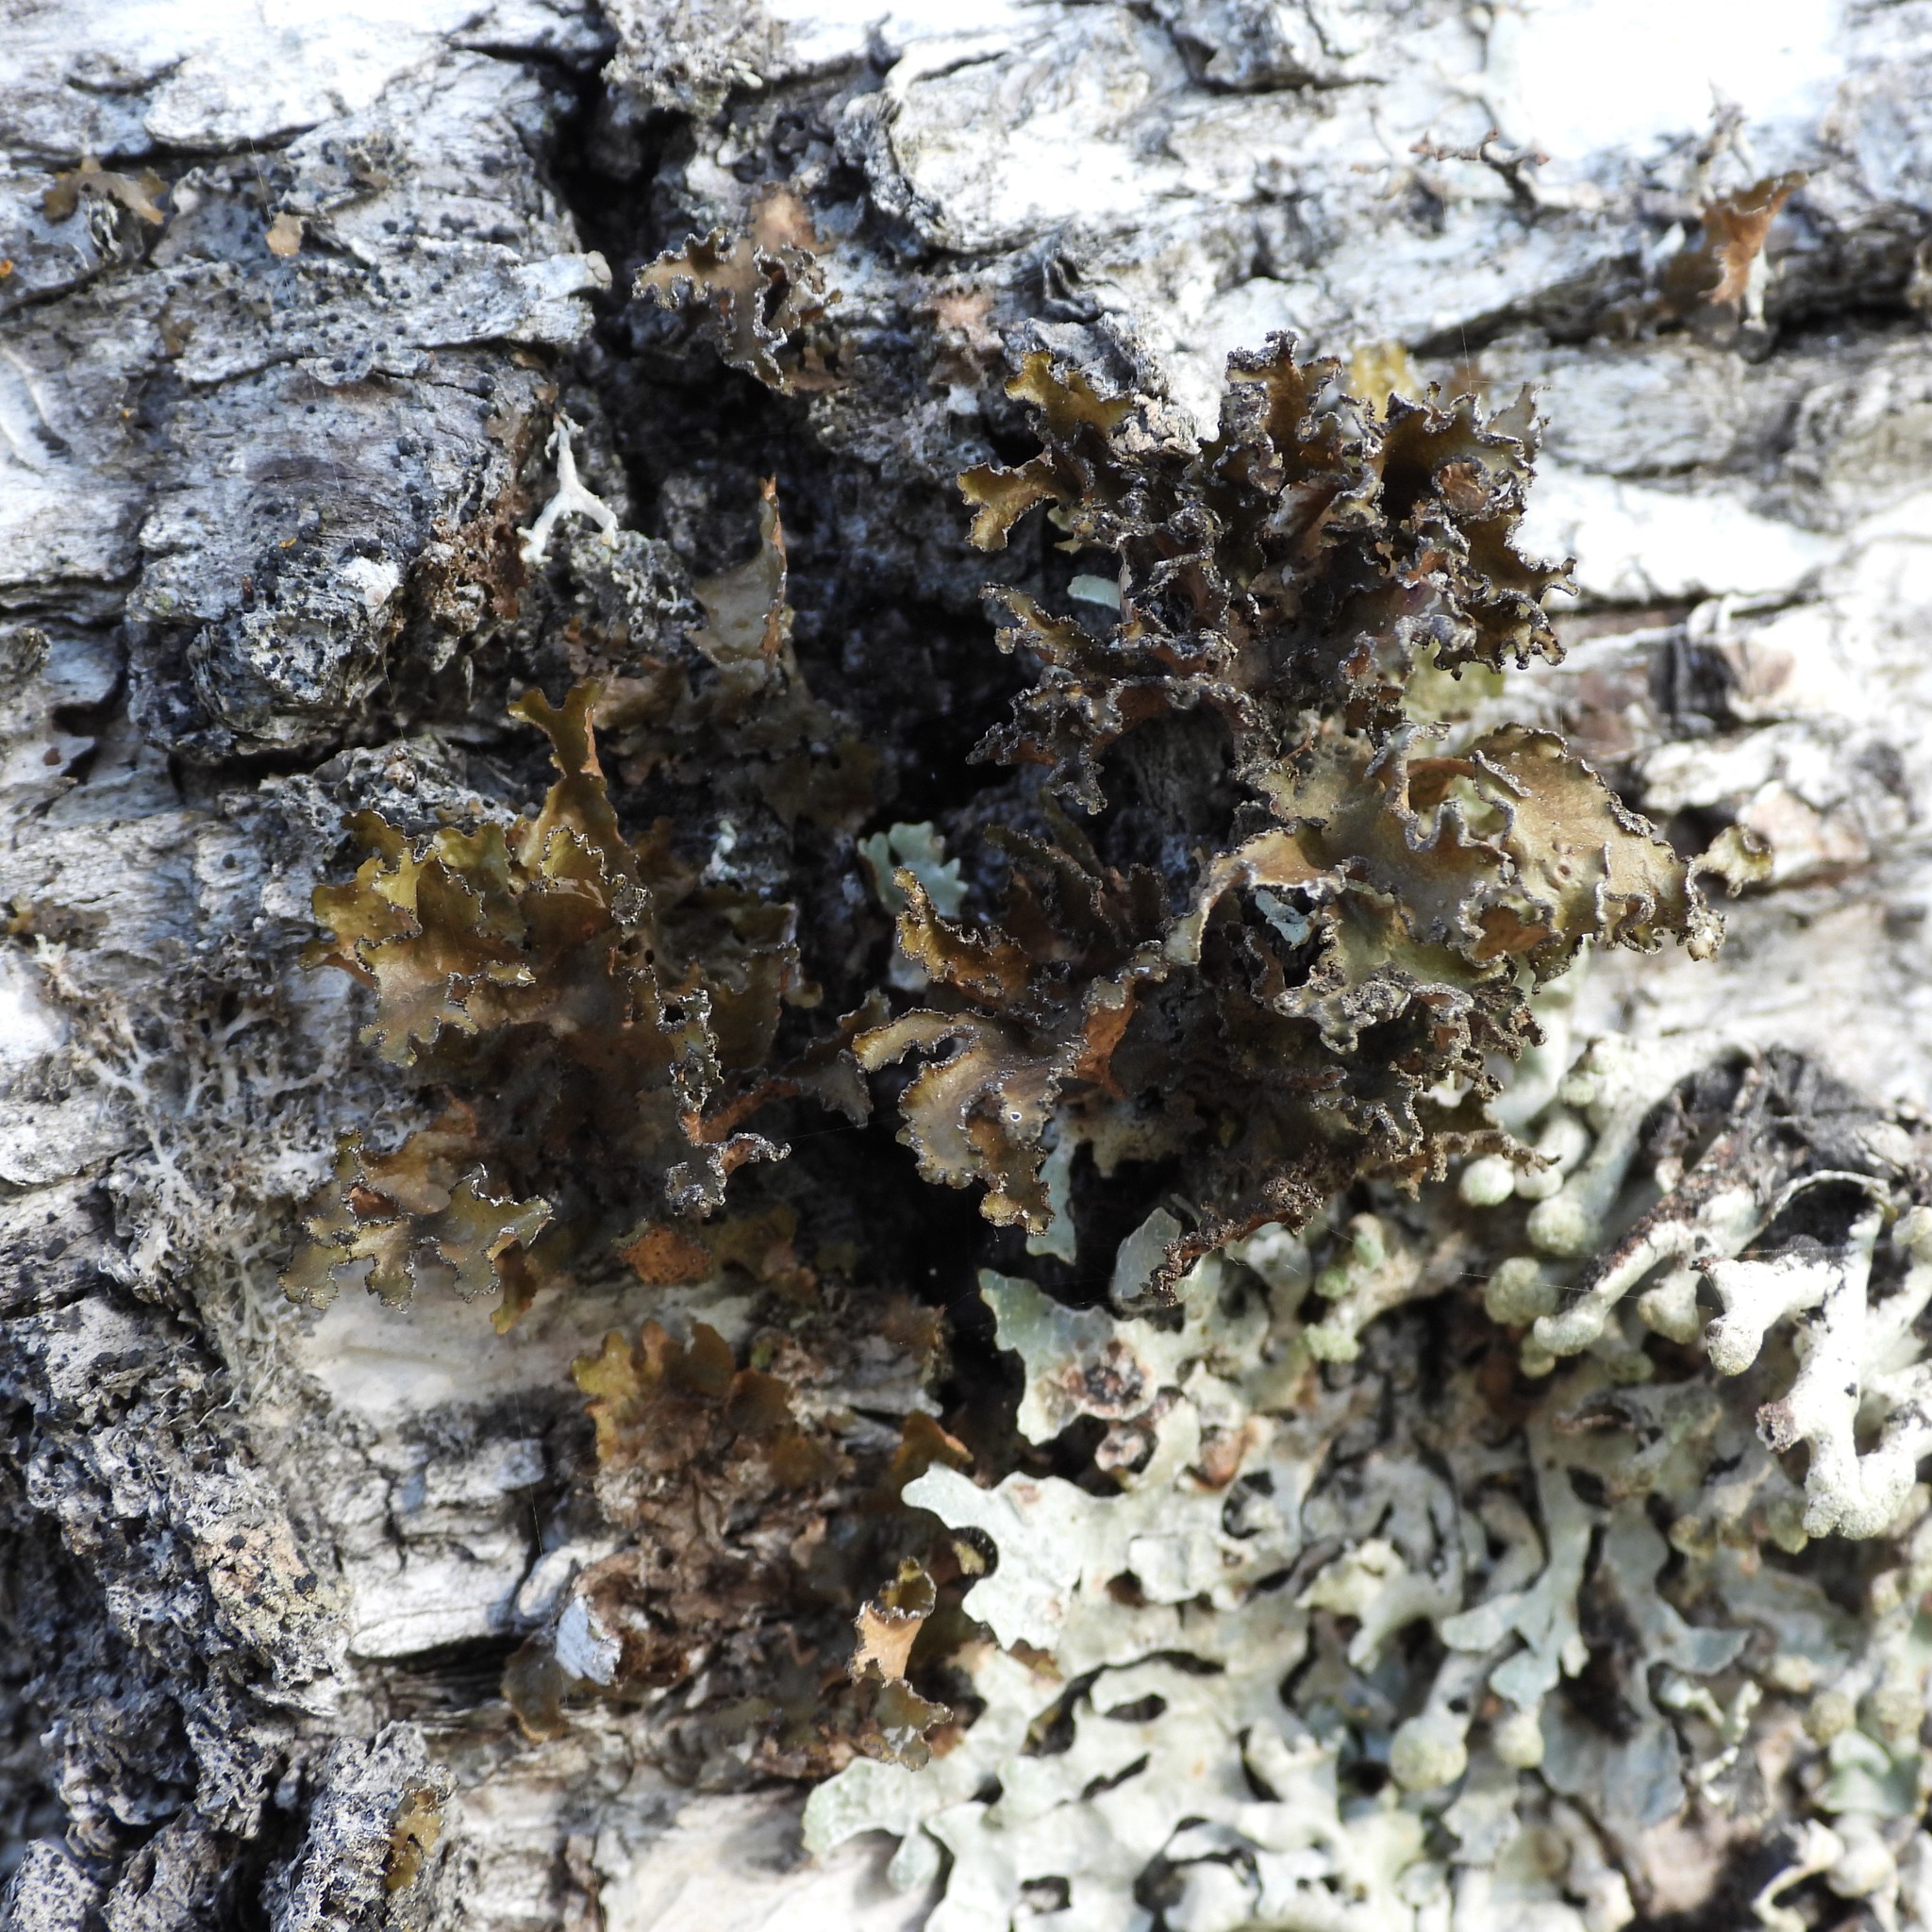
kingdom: Fungi
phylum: Ascomycota
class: Lecanoromycetes
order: Lecanorales
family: Parmeliaceae
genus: Nephromopsis
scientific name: Nephromopsis chlorophylla
